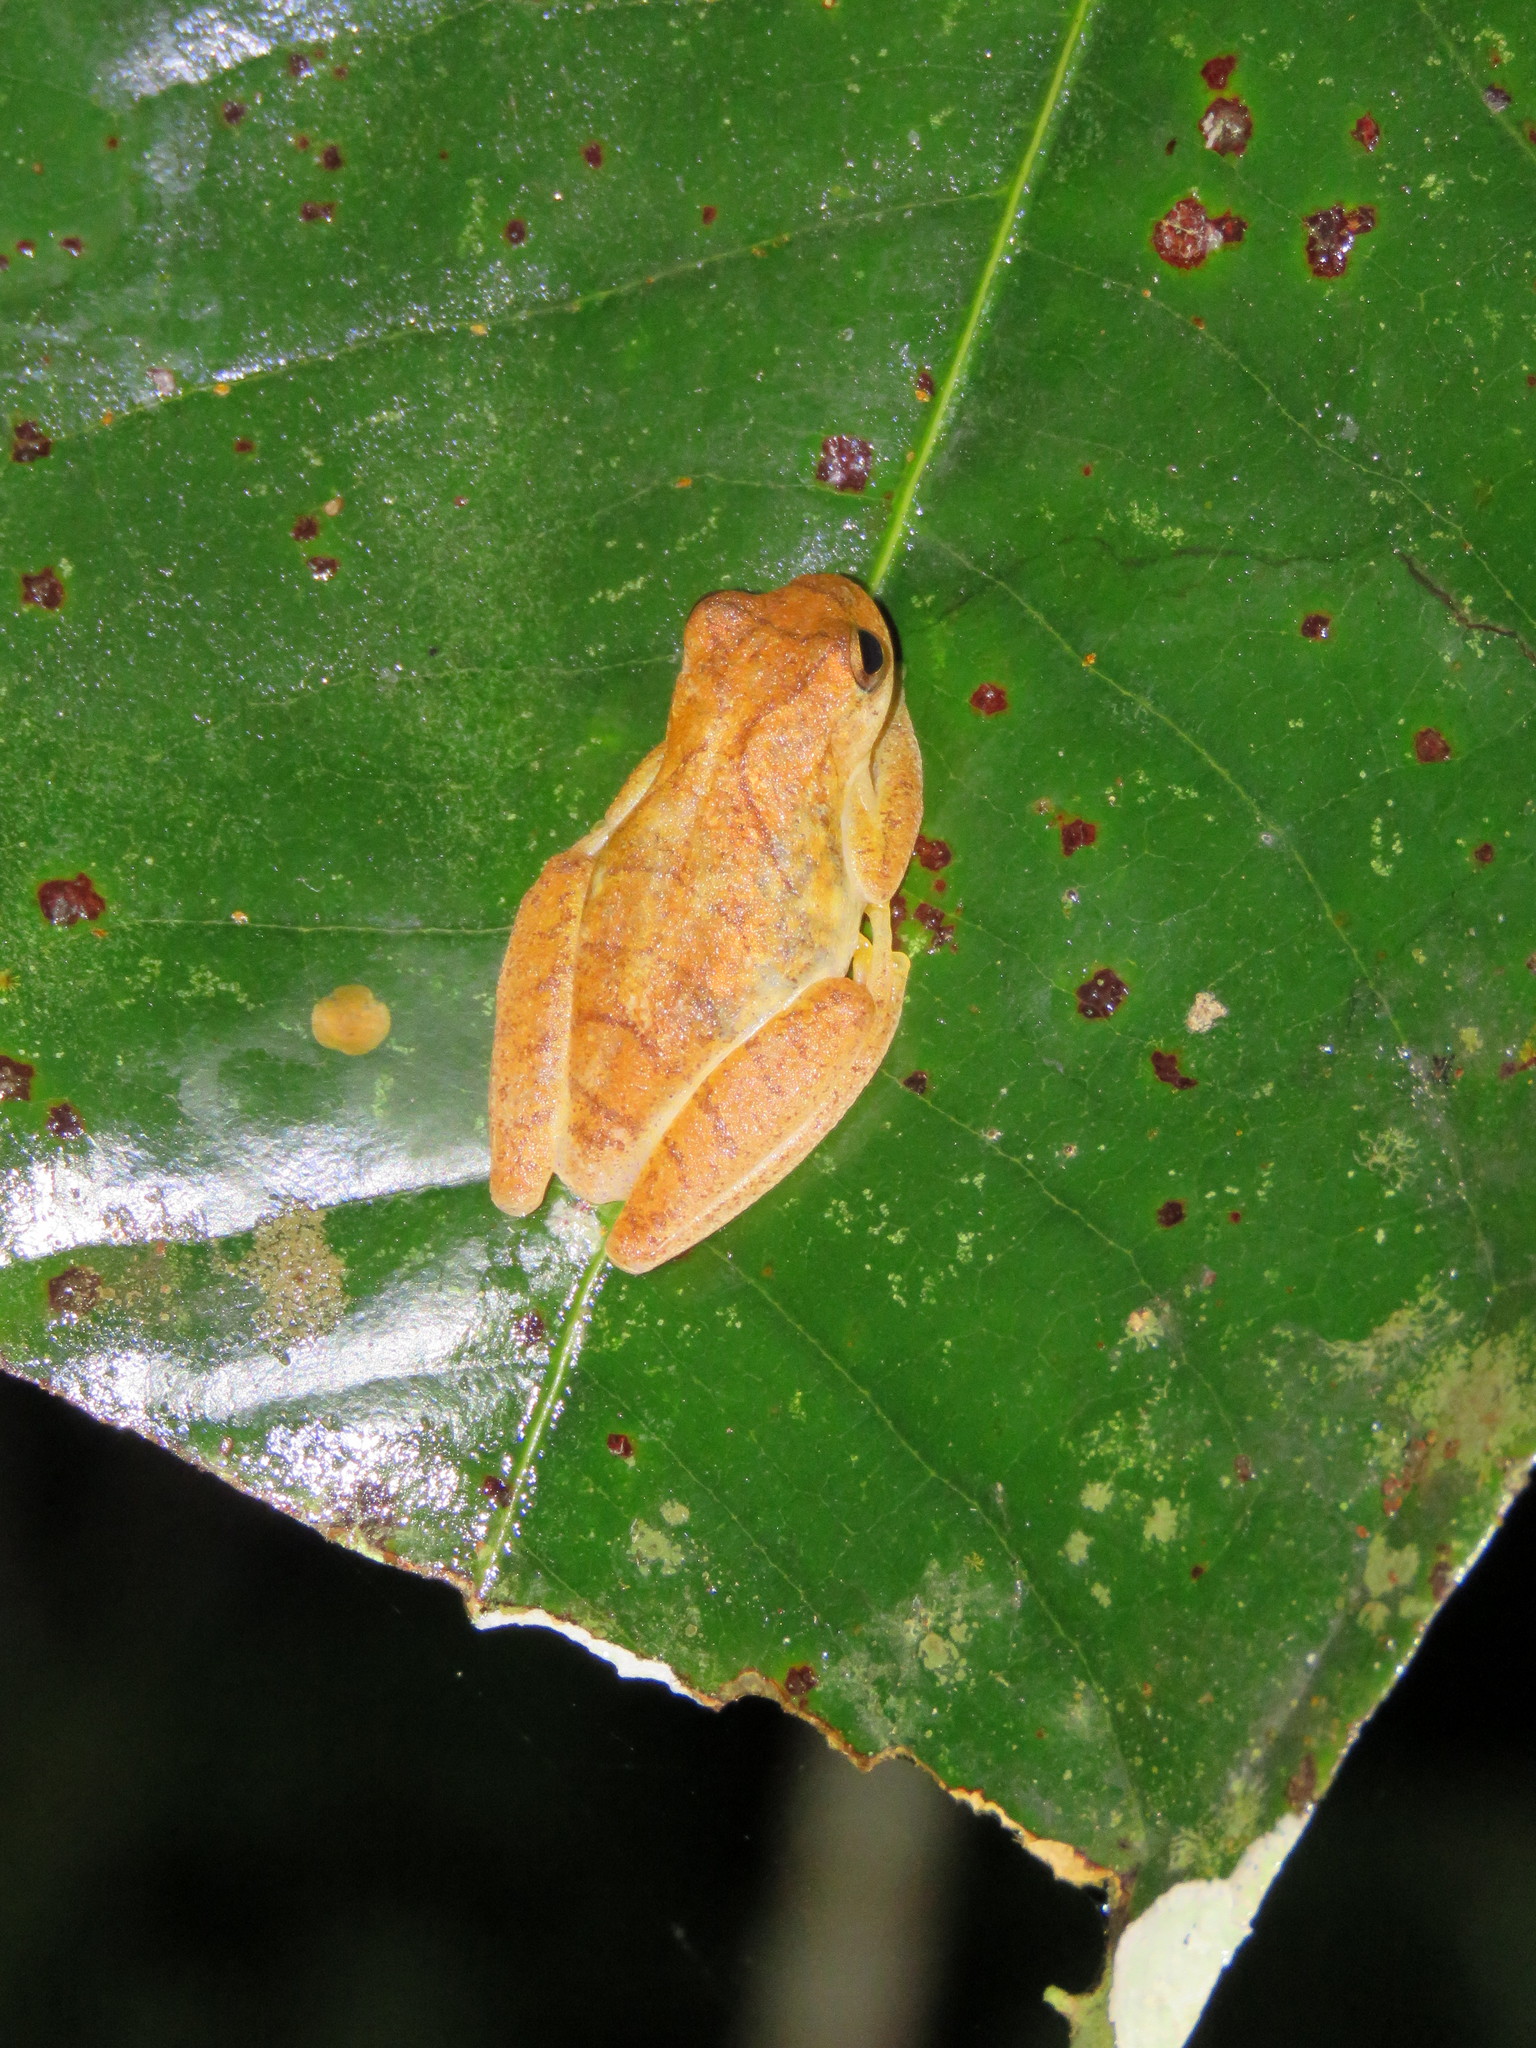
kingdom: Animalia
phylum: Chordata
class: Amphibia
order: Anura
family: Hylidae
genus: Dendropsophus
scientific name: Dendropsophus minutus
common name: Lesser treefrog
